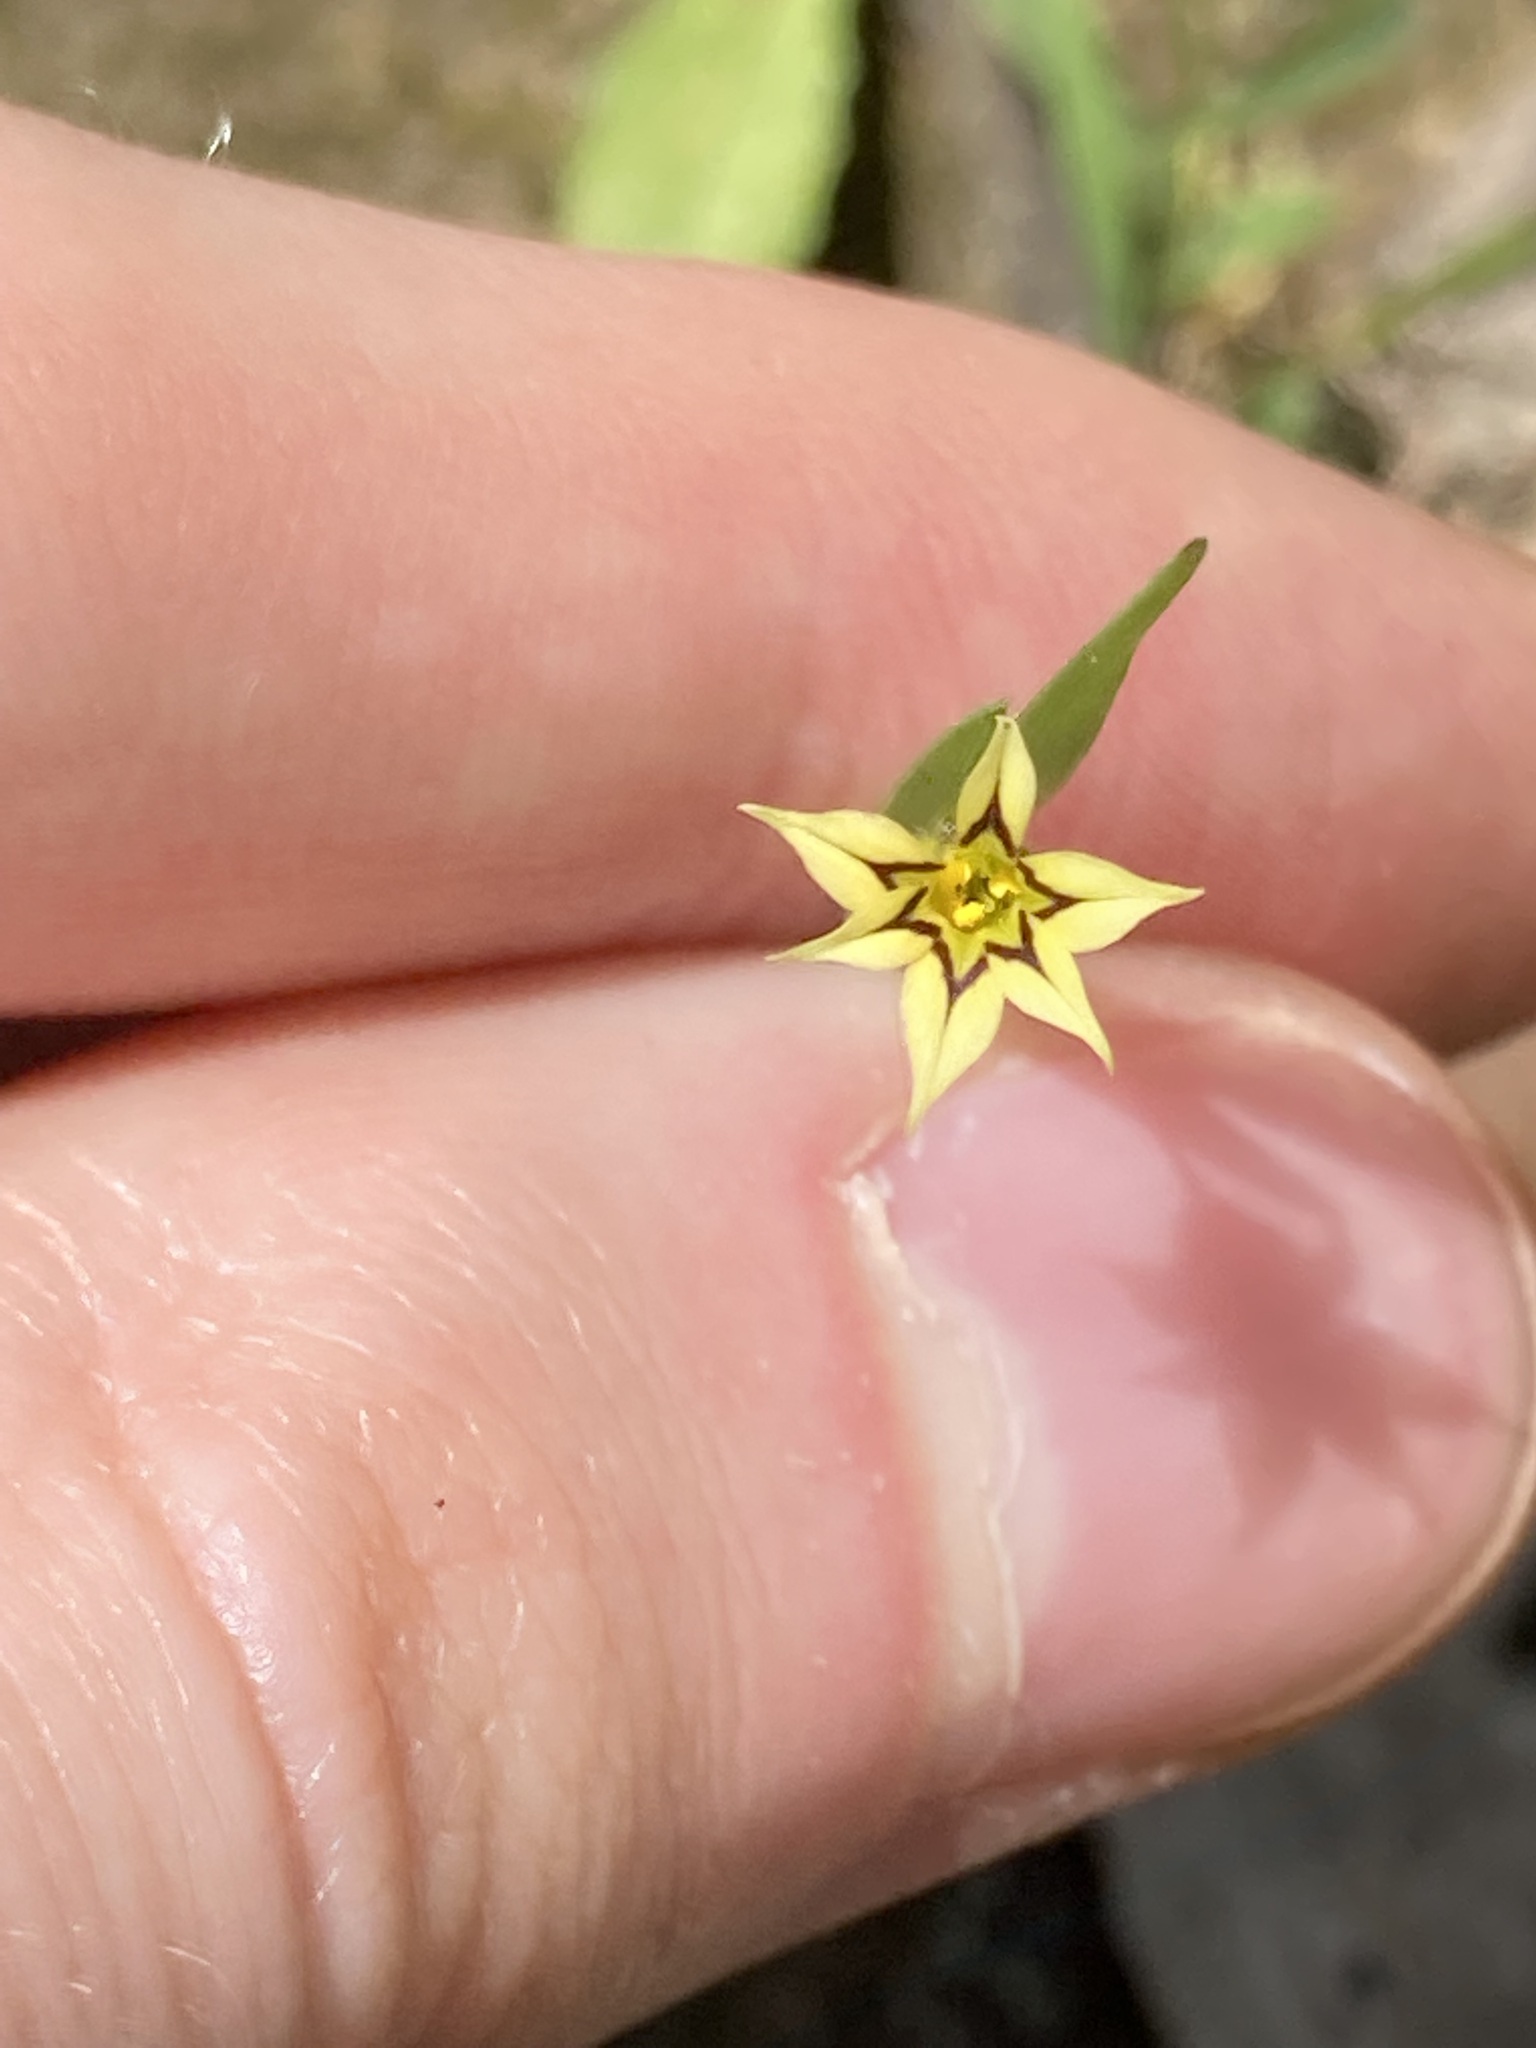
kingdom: Plantae
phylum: Tracheophyta
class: Liliopsida
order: Asparagales
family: Iridaceae
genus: Sisyrinchium
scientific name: Sisyrinchium micranthum
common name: Bermuda pigroot
